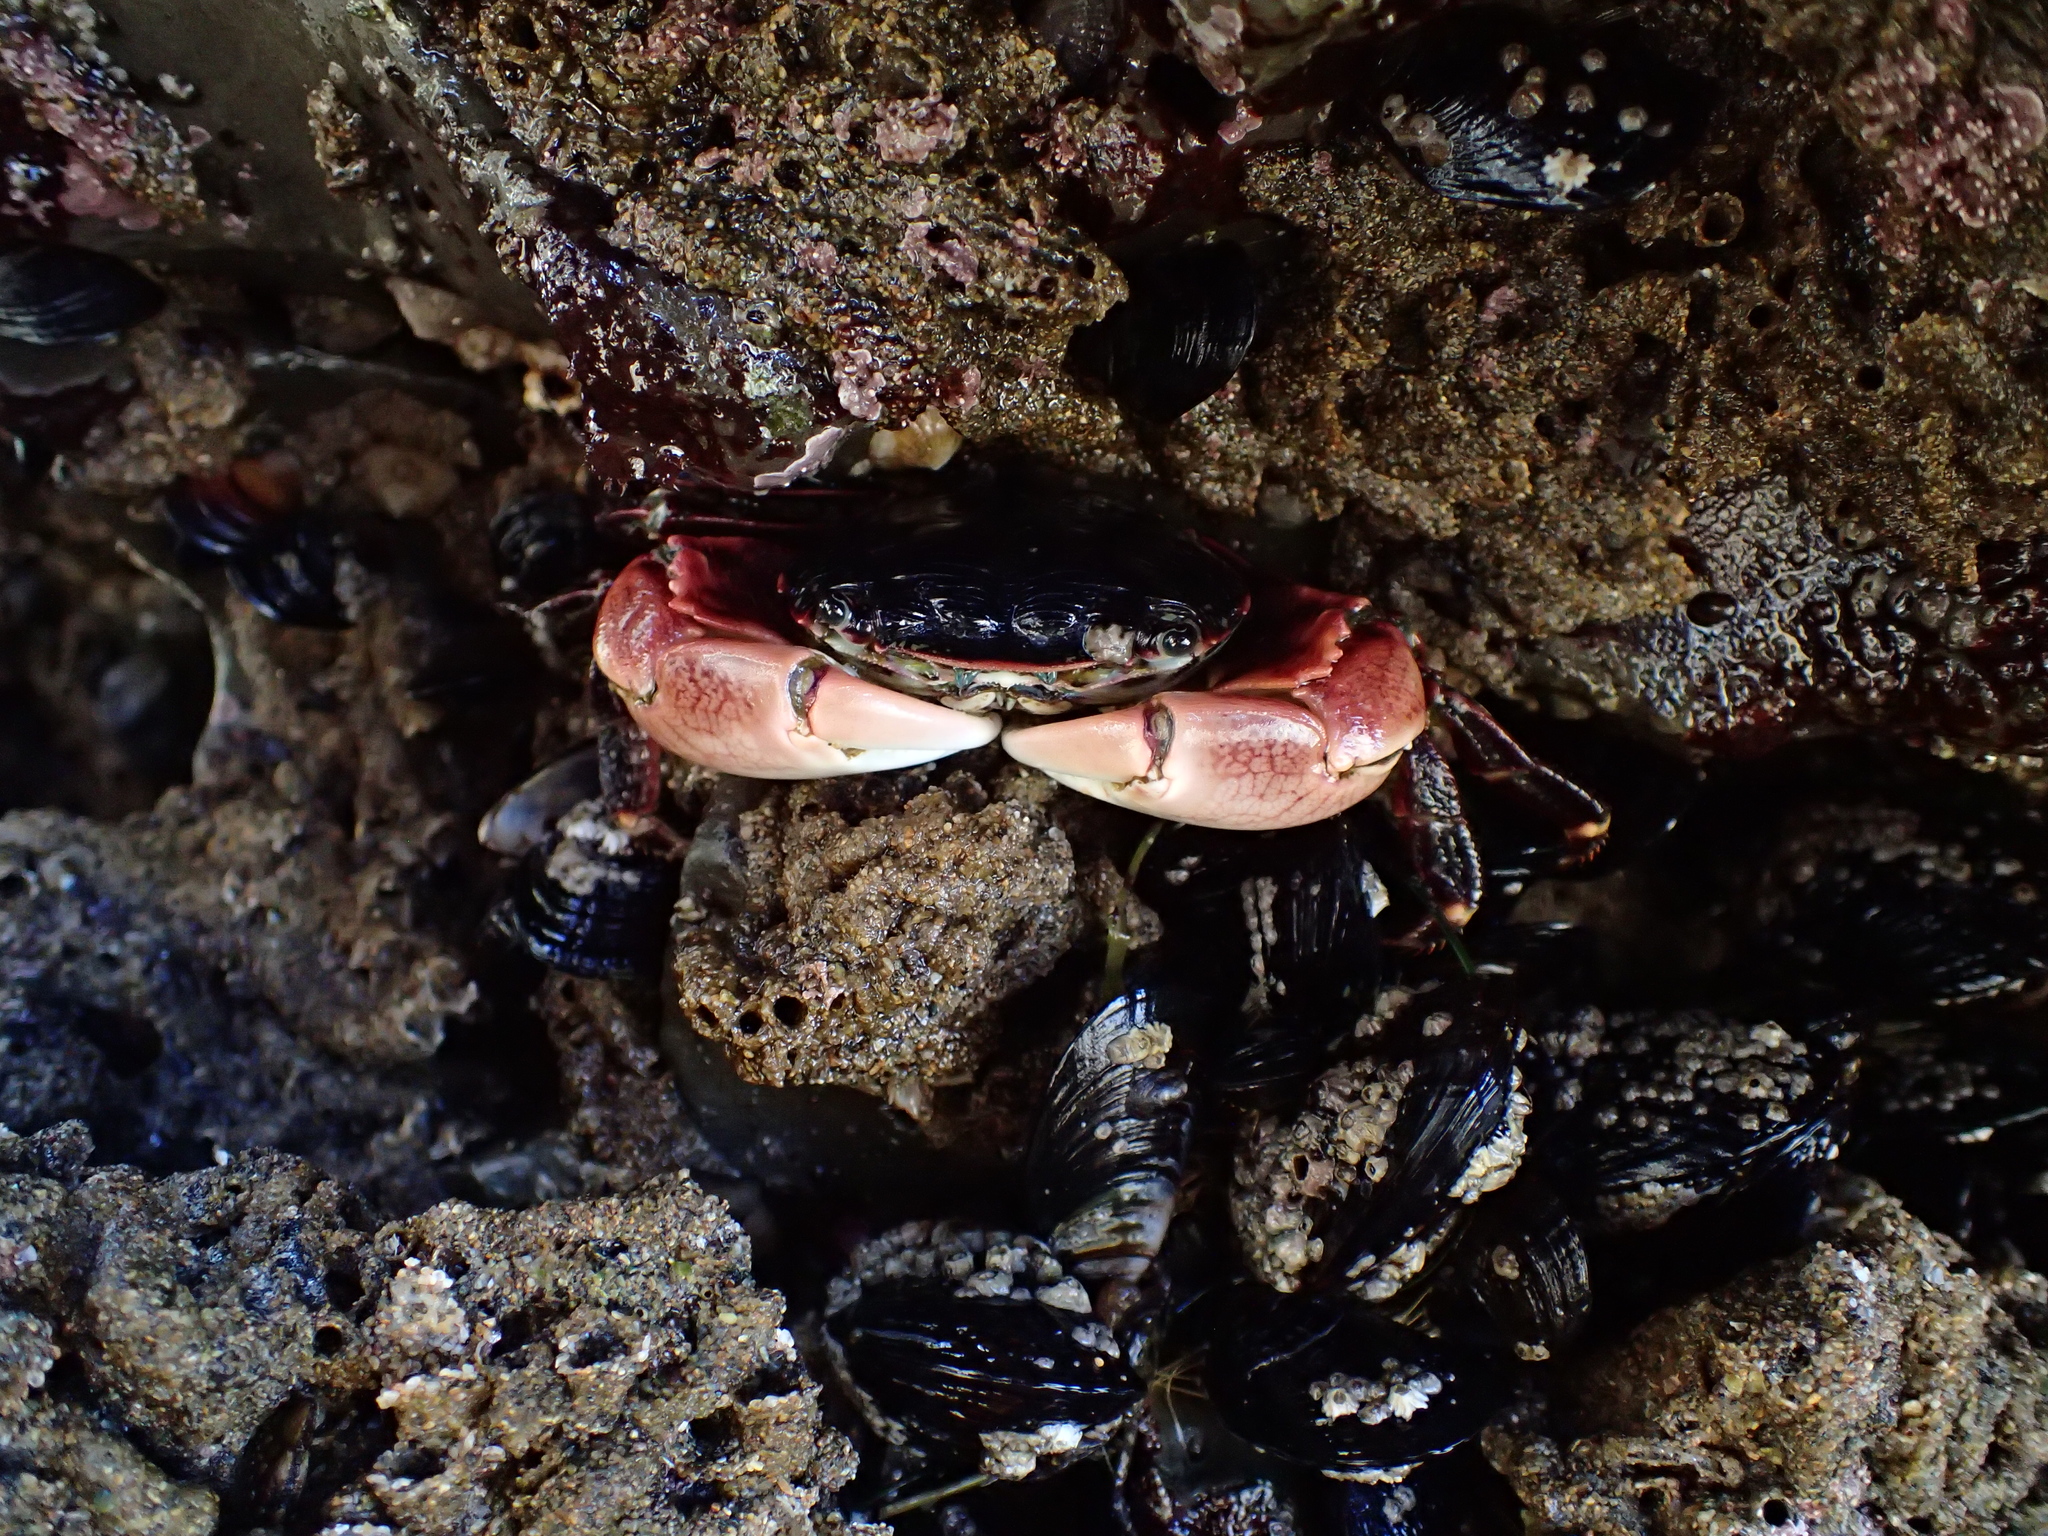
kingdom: Animalia
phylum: Arthropoda
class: Malacostraca
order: Decapoda
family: Grapsidae
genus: Pachygrapsus
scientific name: Pachygrapsus crassipes
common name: Striped shore crab
